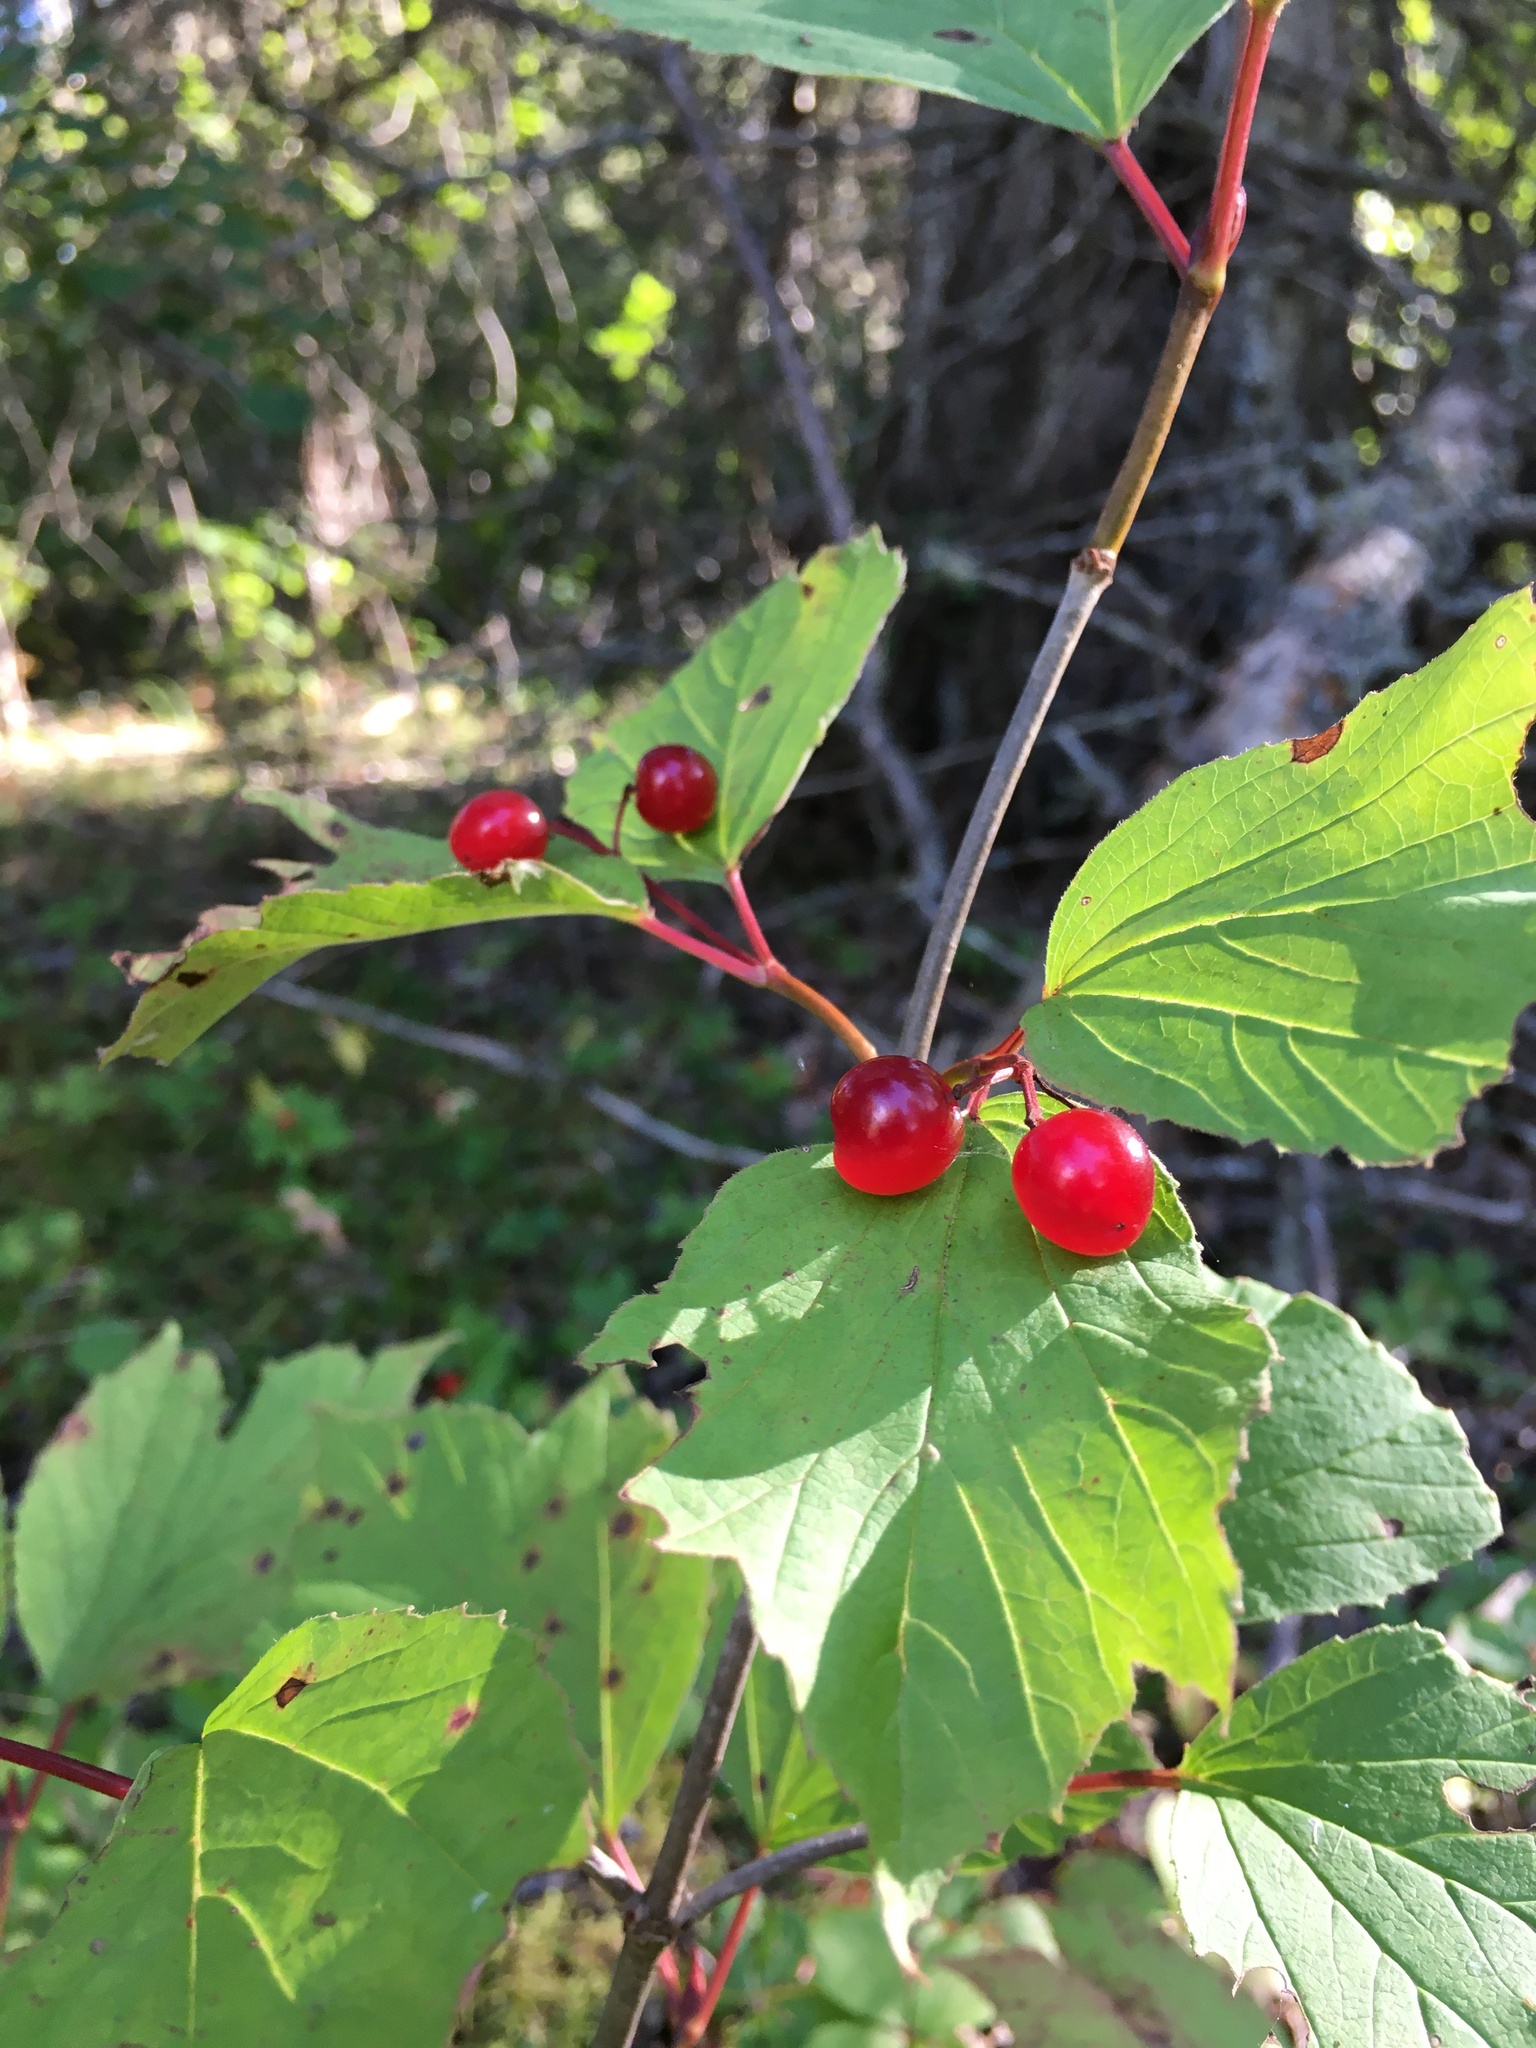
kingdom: Plantae
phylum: Tracheophyta
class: Magnoliopsida
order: Dipsacales
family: Viburnaceae
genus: Viburnum
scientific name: Viburnum edule
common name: Mooseberry
